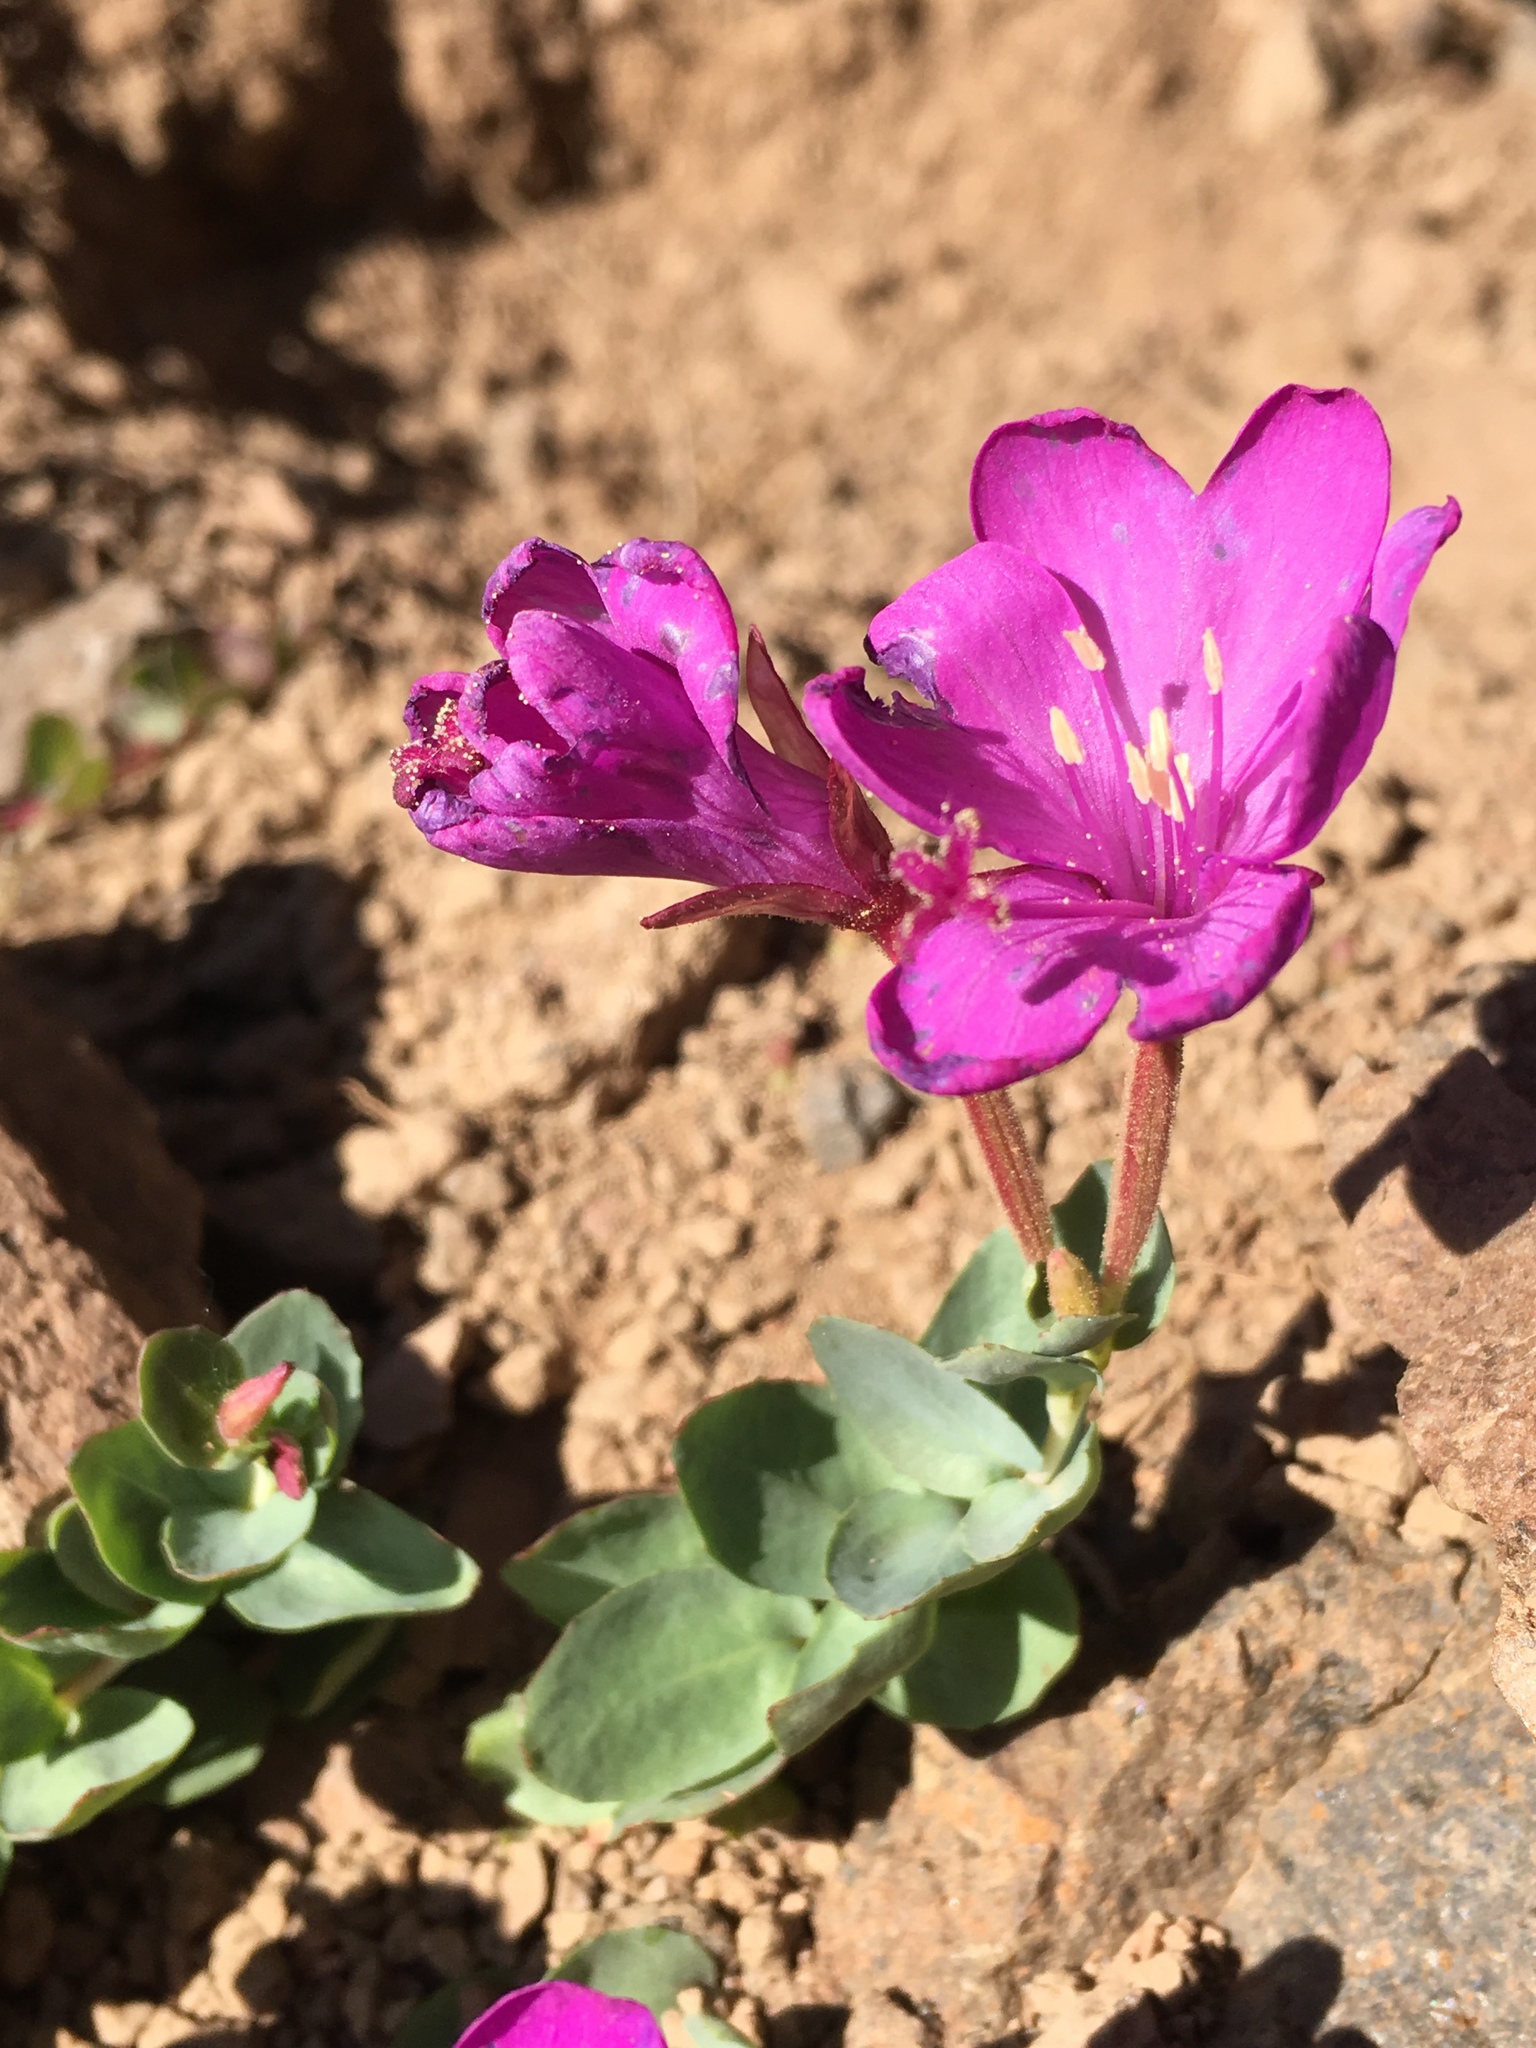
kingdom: Plantae
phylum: Tracheophyta
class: Magnoliopsida
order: Myrtales
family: Onagraceae
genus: Epilobium
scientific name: Epilobium obcordatum
